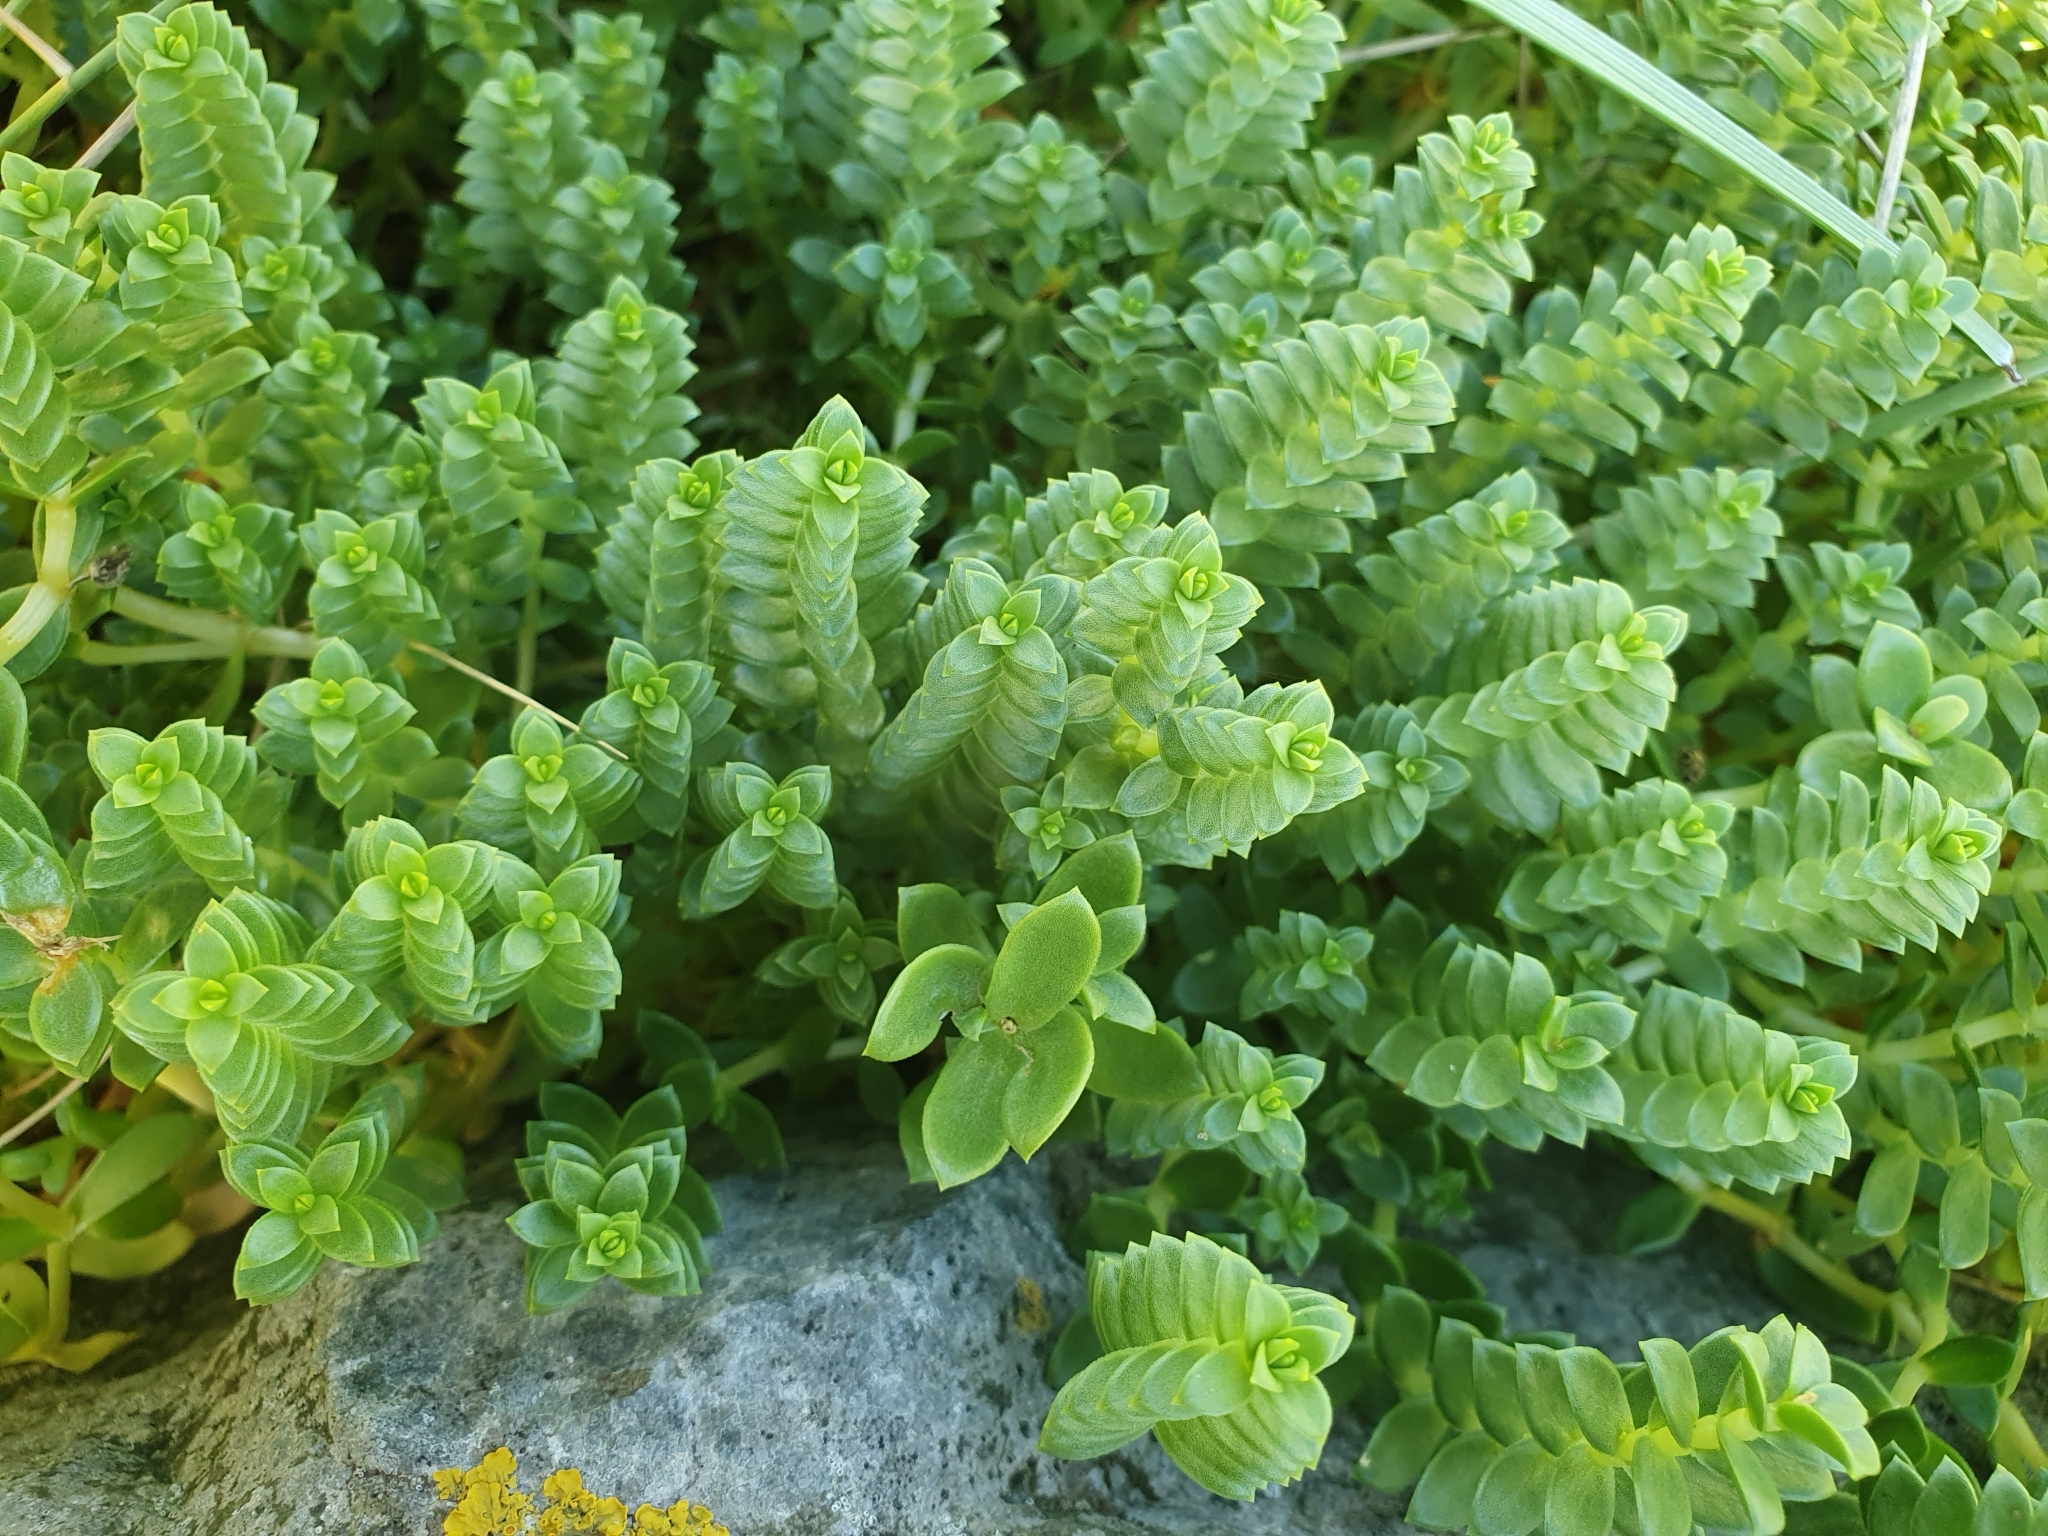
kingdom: Plantae
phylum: Tracheophyta
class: Magnoliopsida
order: Caryophyllales
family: Caryophyllaceae
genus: Honckenya
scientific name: Honckenya peploides
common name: Sea sandwort
